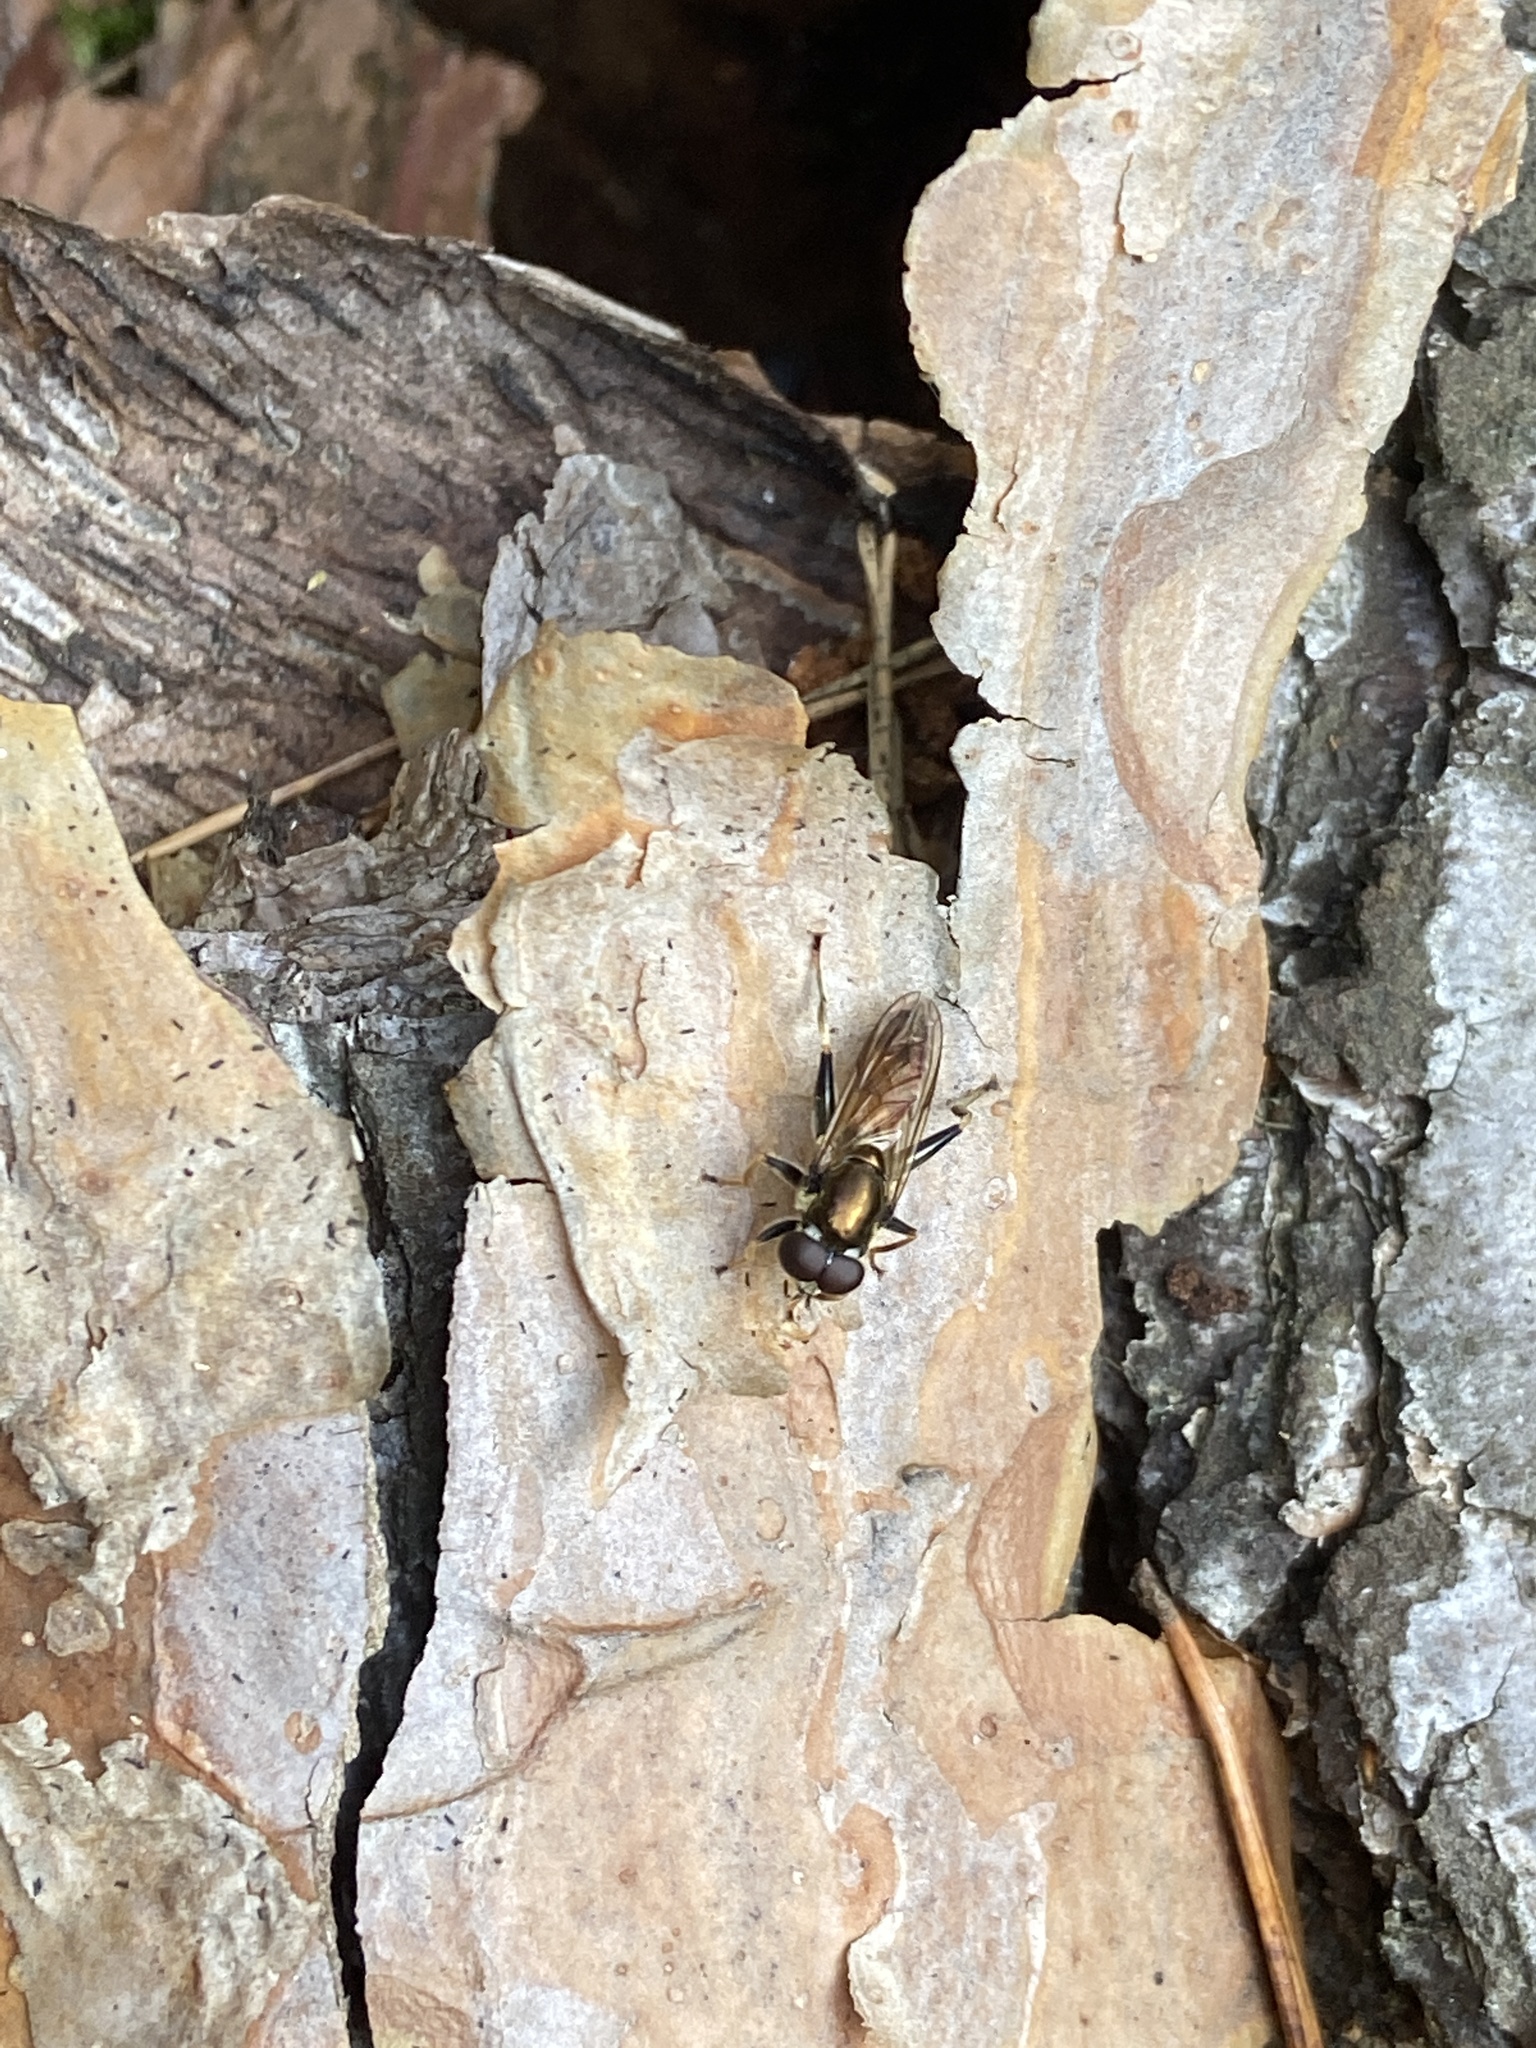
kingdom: Animalia
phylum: Arthropoda
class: Insecta
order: Diptera
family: Syrphidae
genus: Xylota
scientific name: Xylota segnis
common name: Brown-toed forest fly
